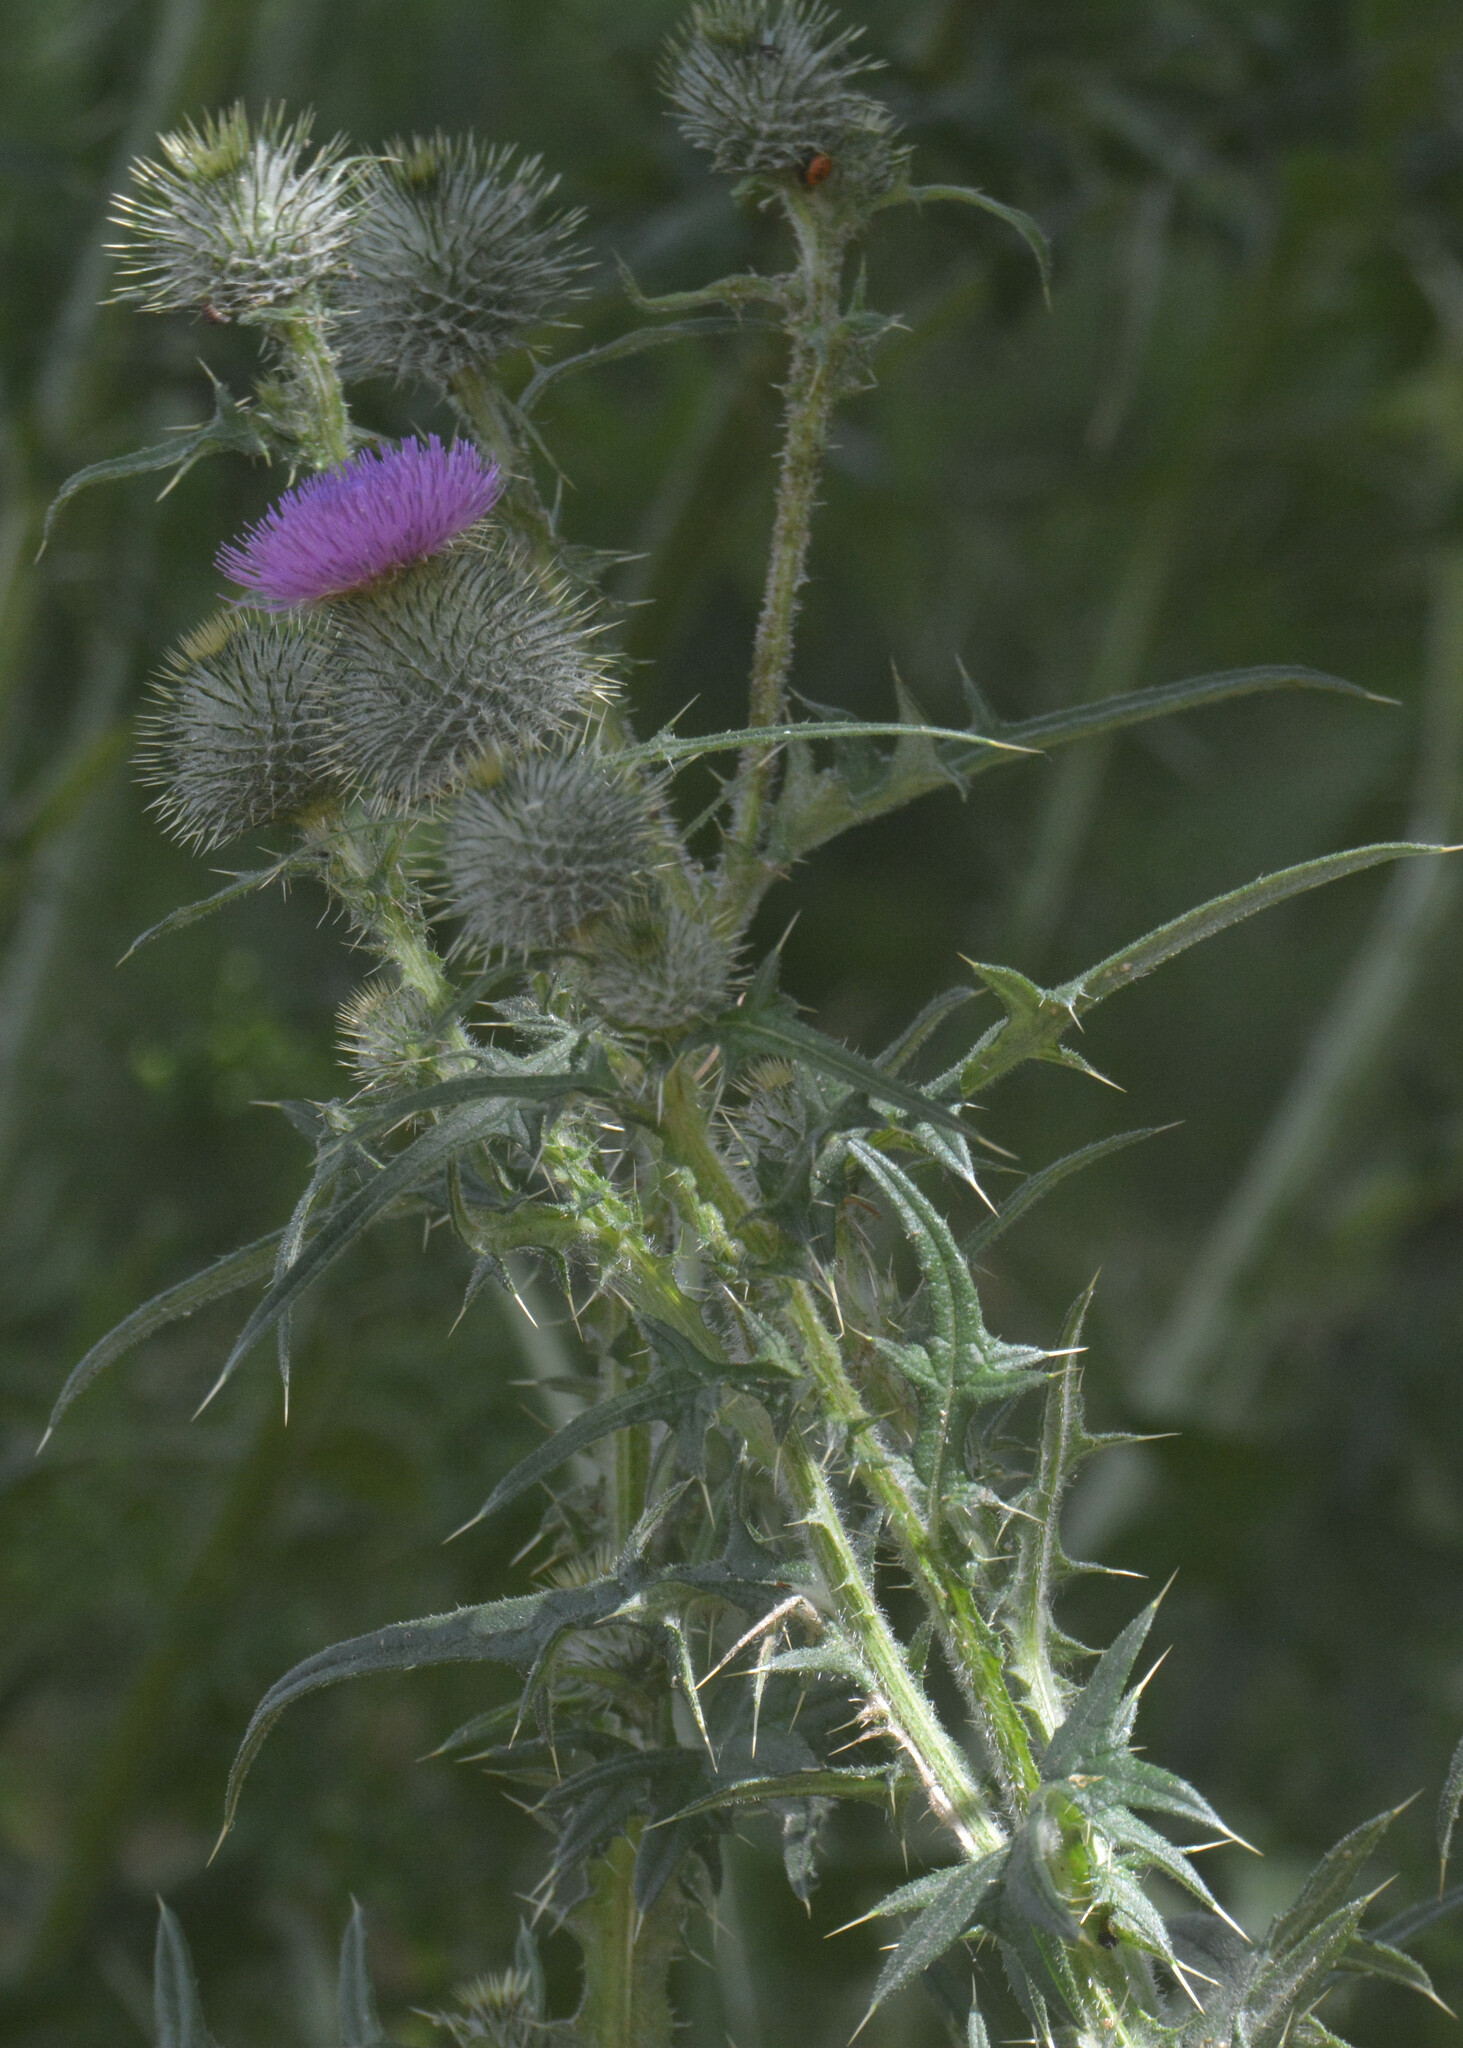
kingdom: Plantae
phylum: Tracheophyta
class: Magnoliopsida
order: Asterales
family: Asteraceae
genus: Cirsium
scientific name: Cirsium vulgare
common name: Bull thistle
